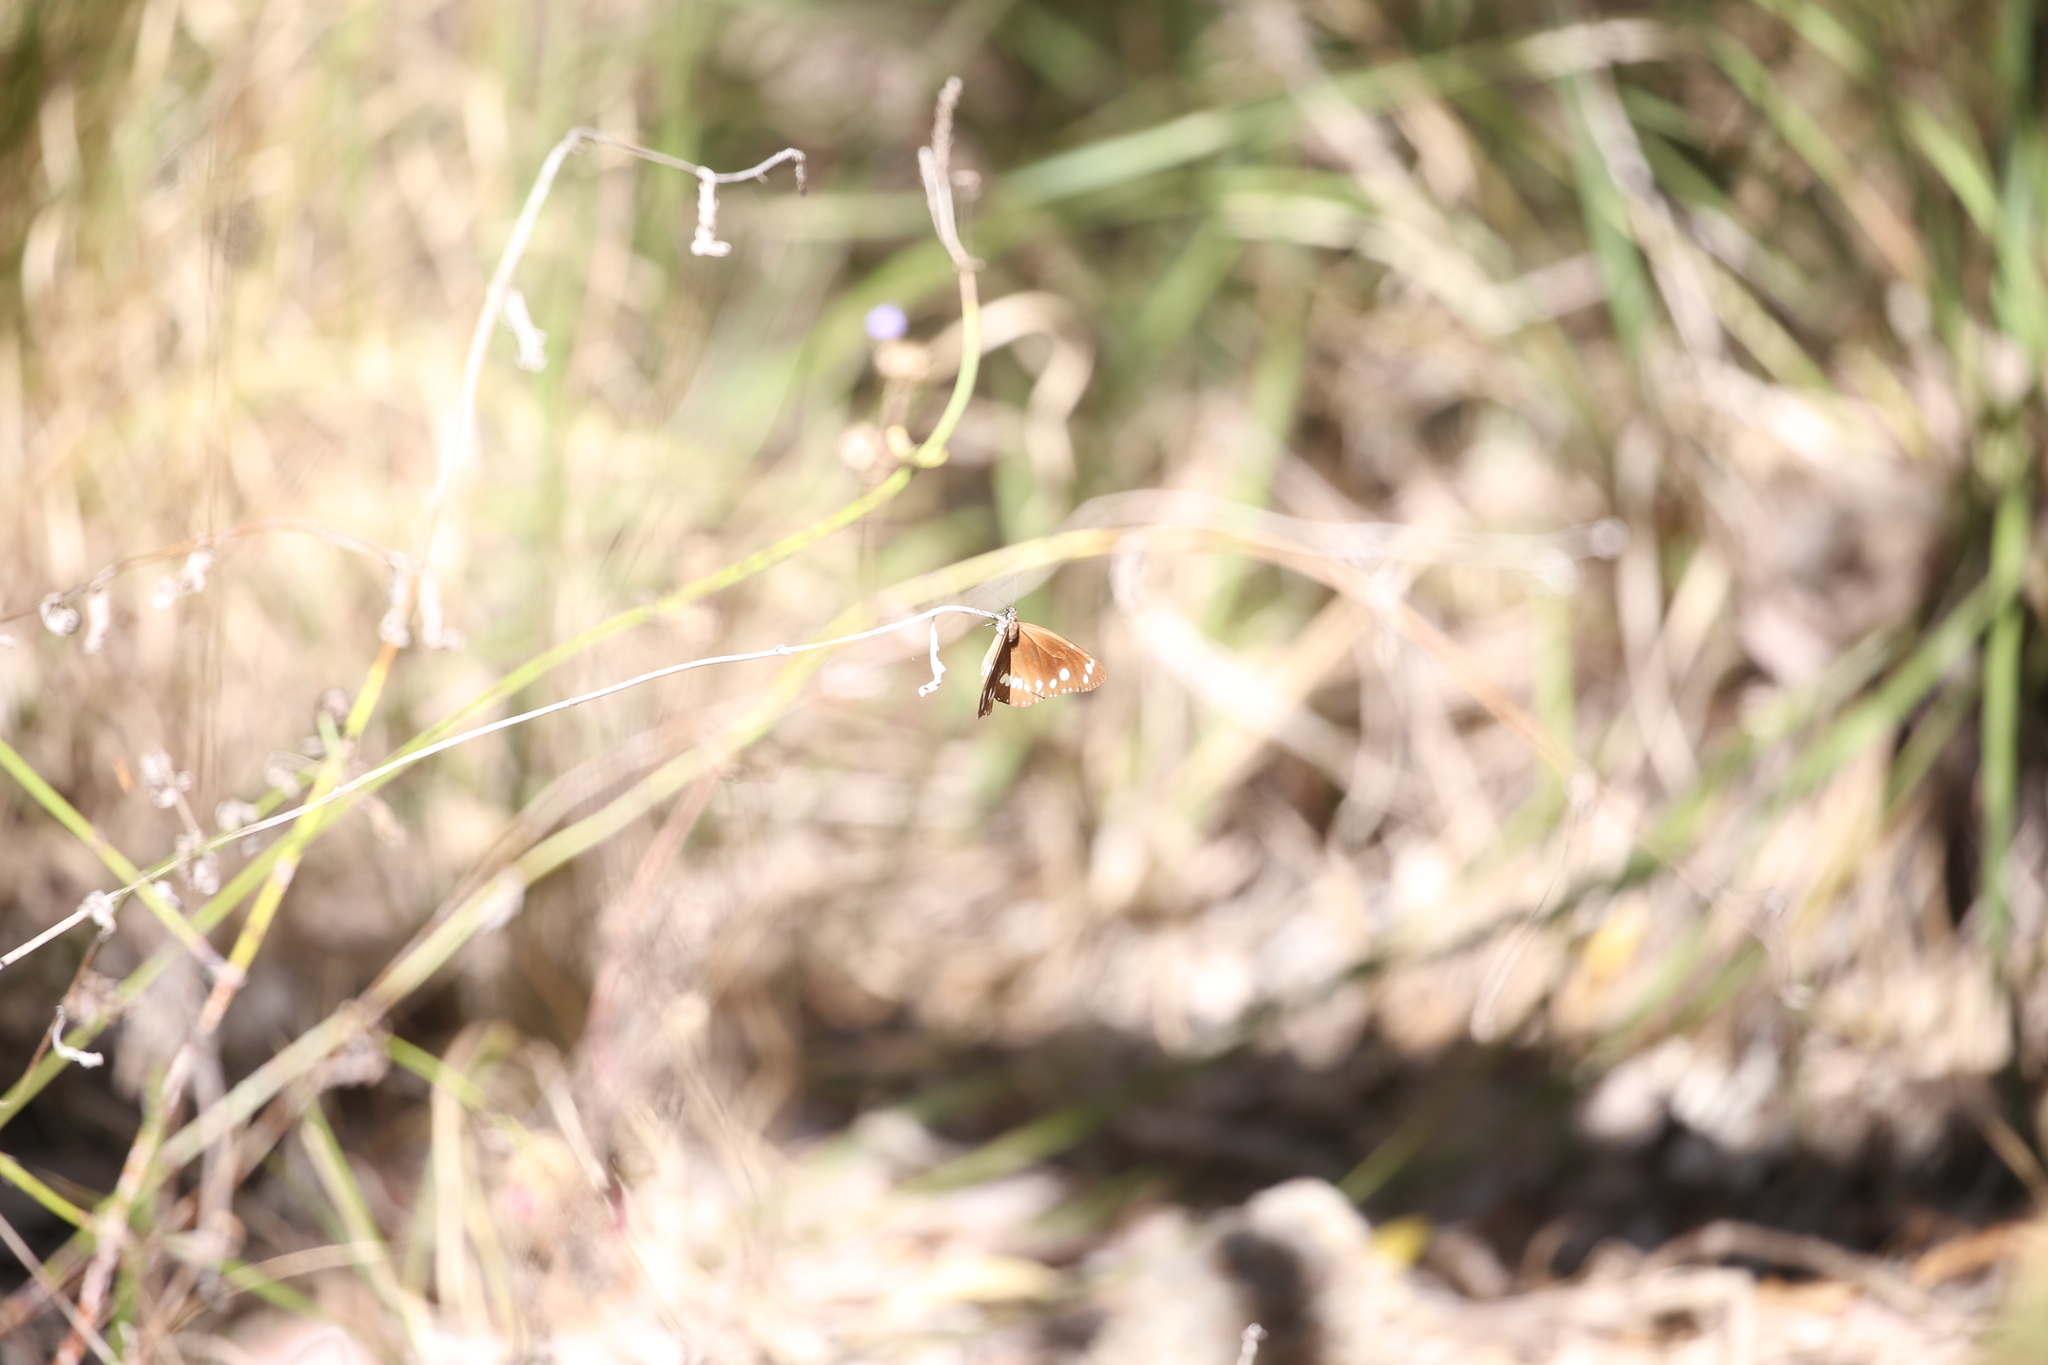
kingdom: Animalia
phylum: Arthropoda
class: Insecta
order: Lepidoptera
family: Nymphalidae
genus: Euploea
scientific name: Euploea core
